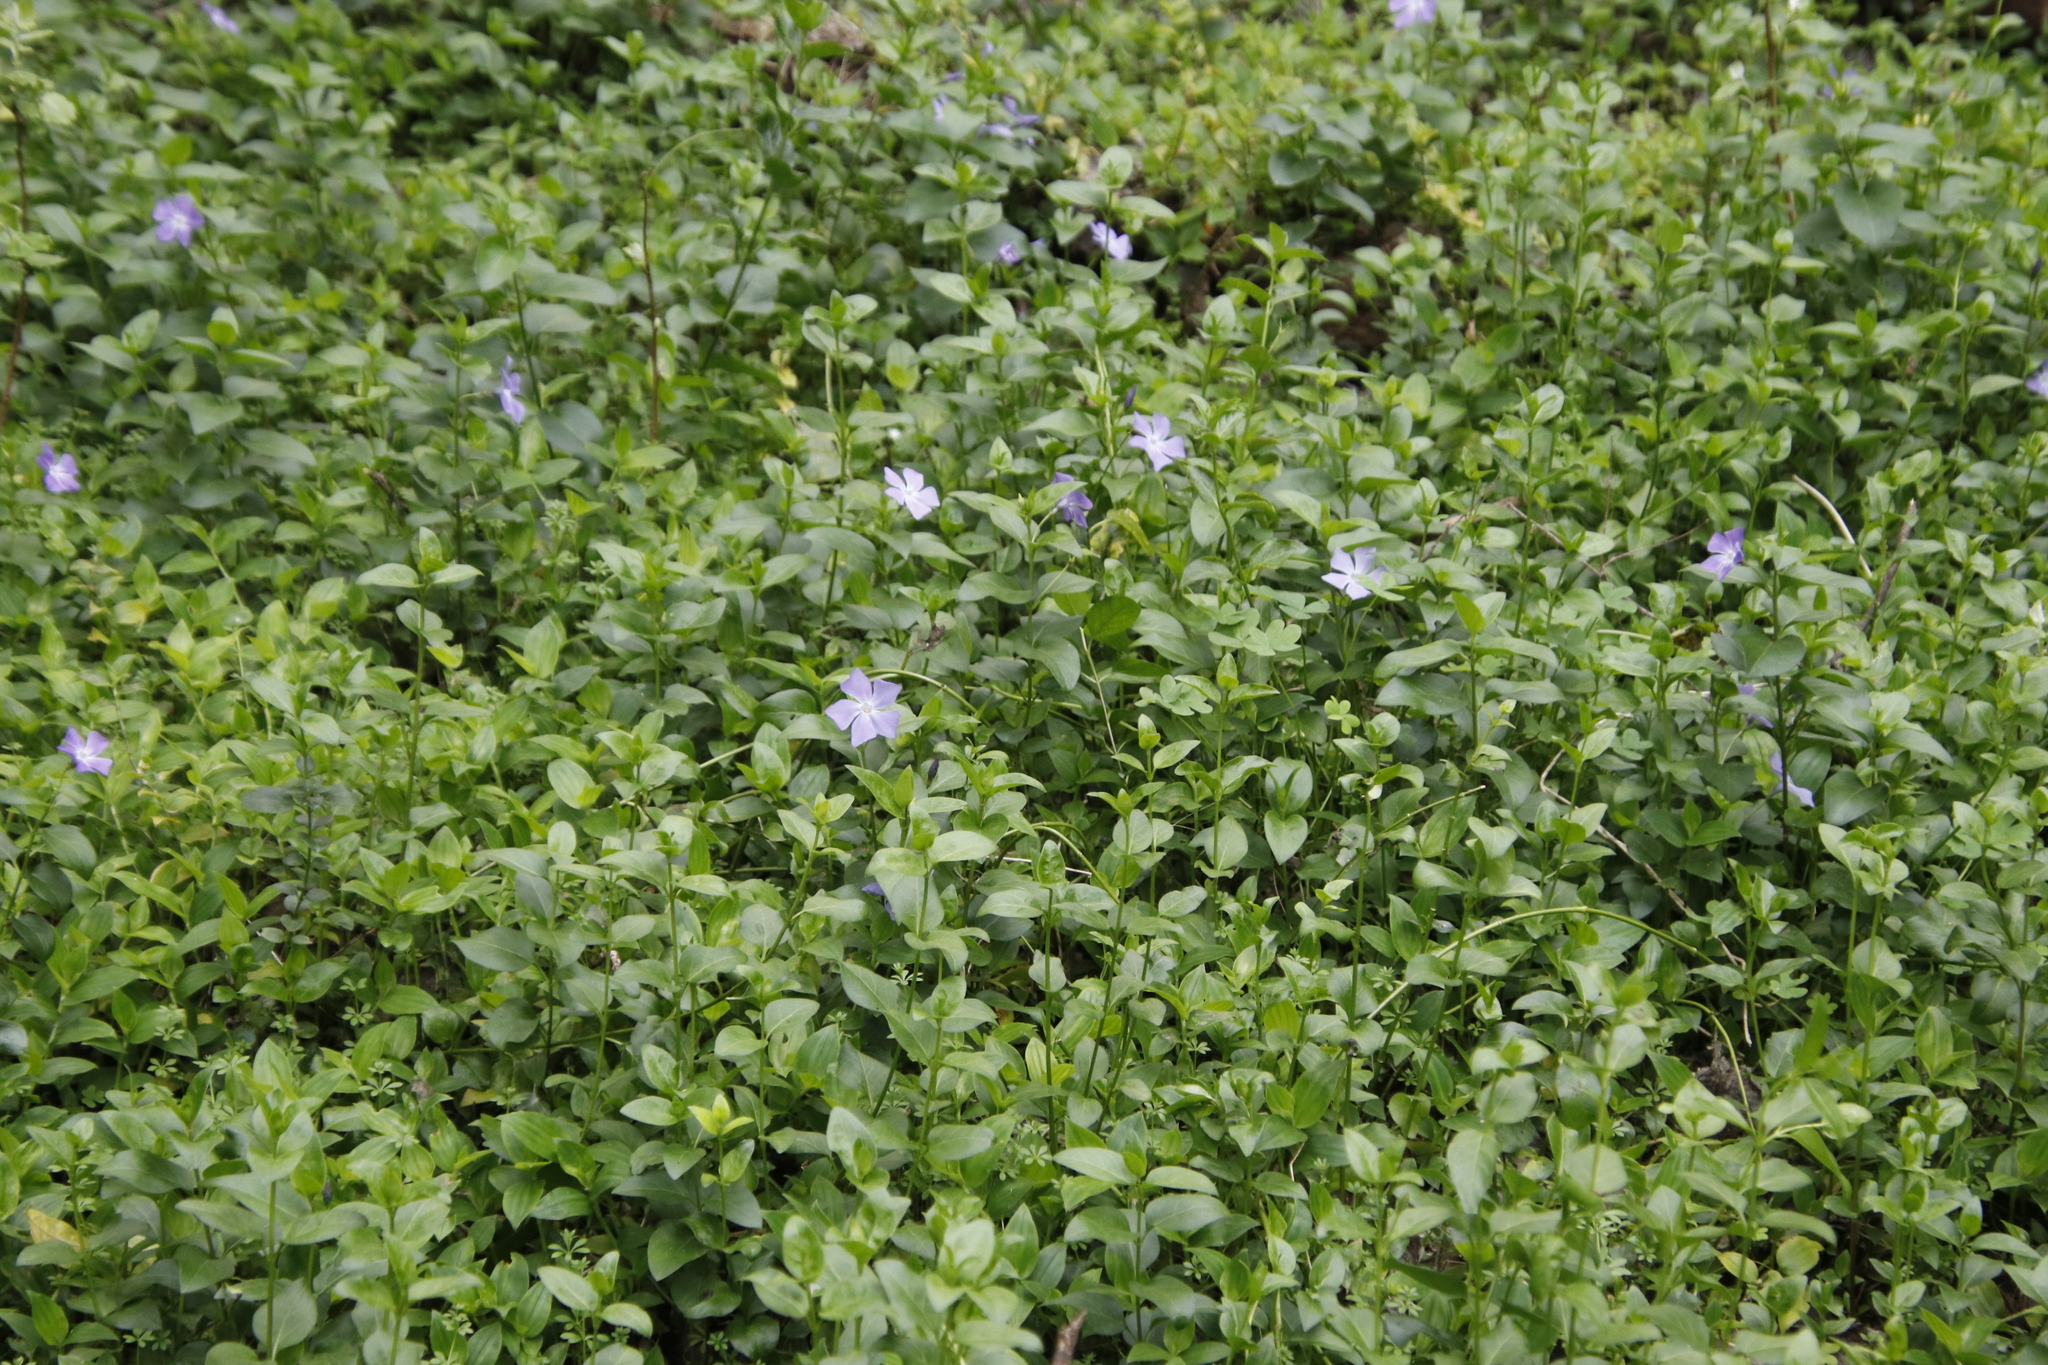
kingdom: Plantae
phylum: Tracheophyta
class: Magnoliopsida
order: Gentianales
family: Apocynaceae
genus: Vinca
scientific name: Vinca major
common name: Greater periwinkle
